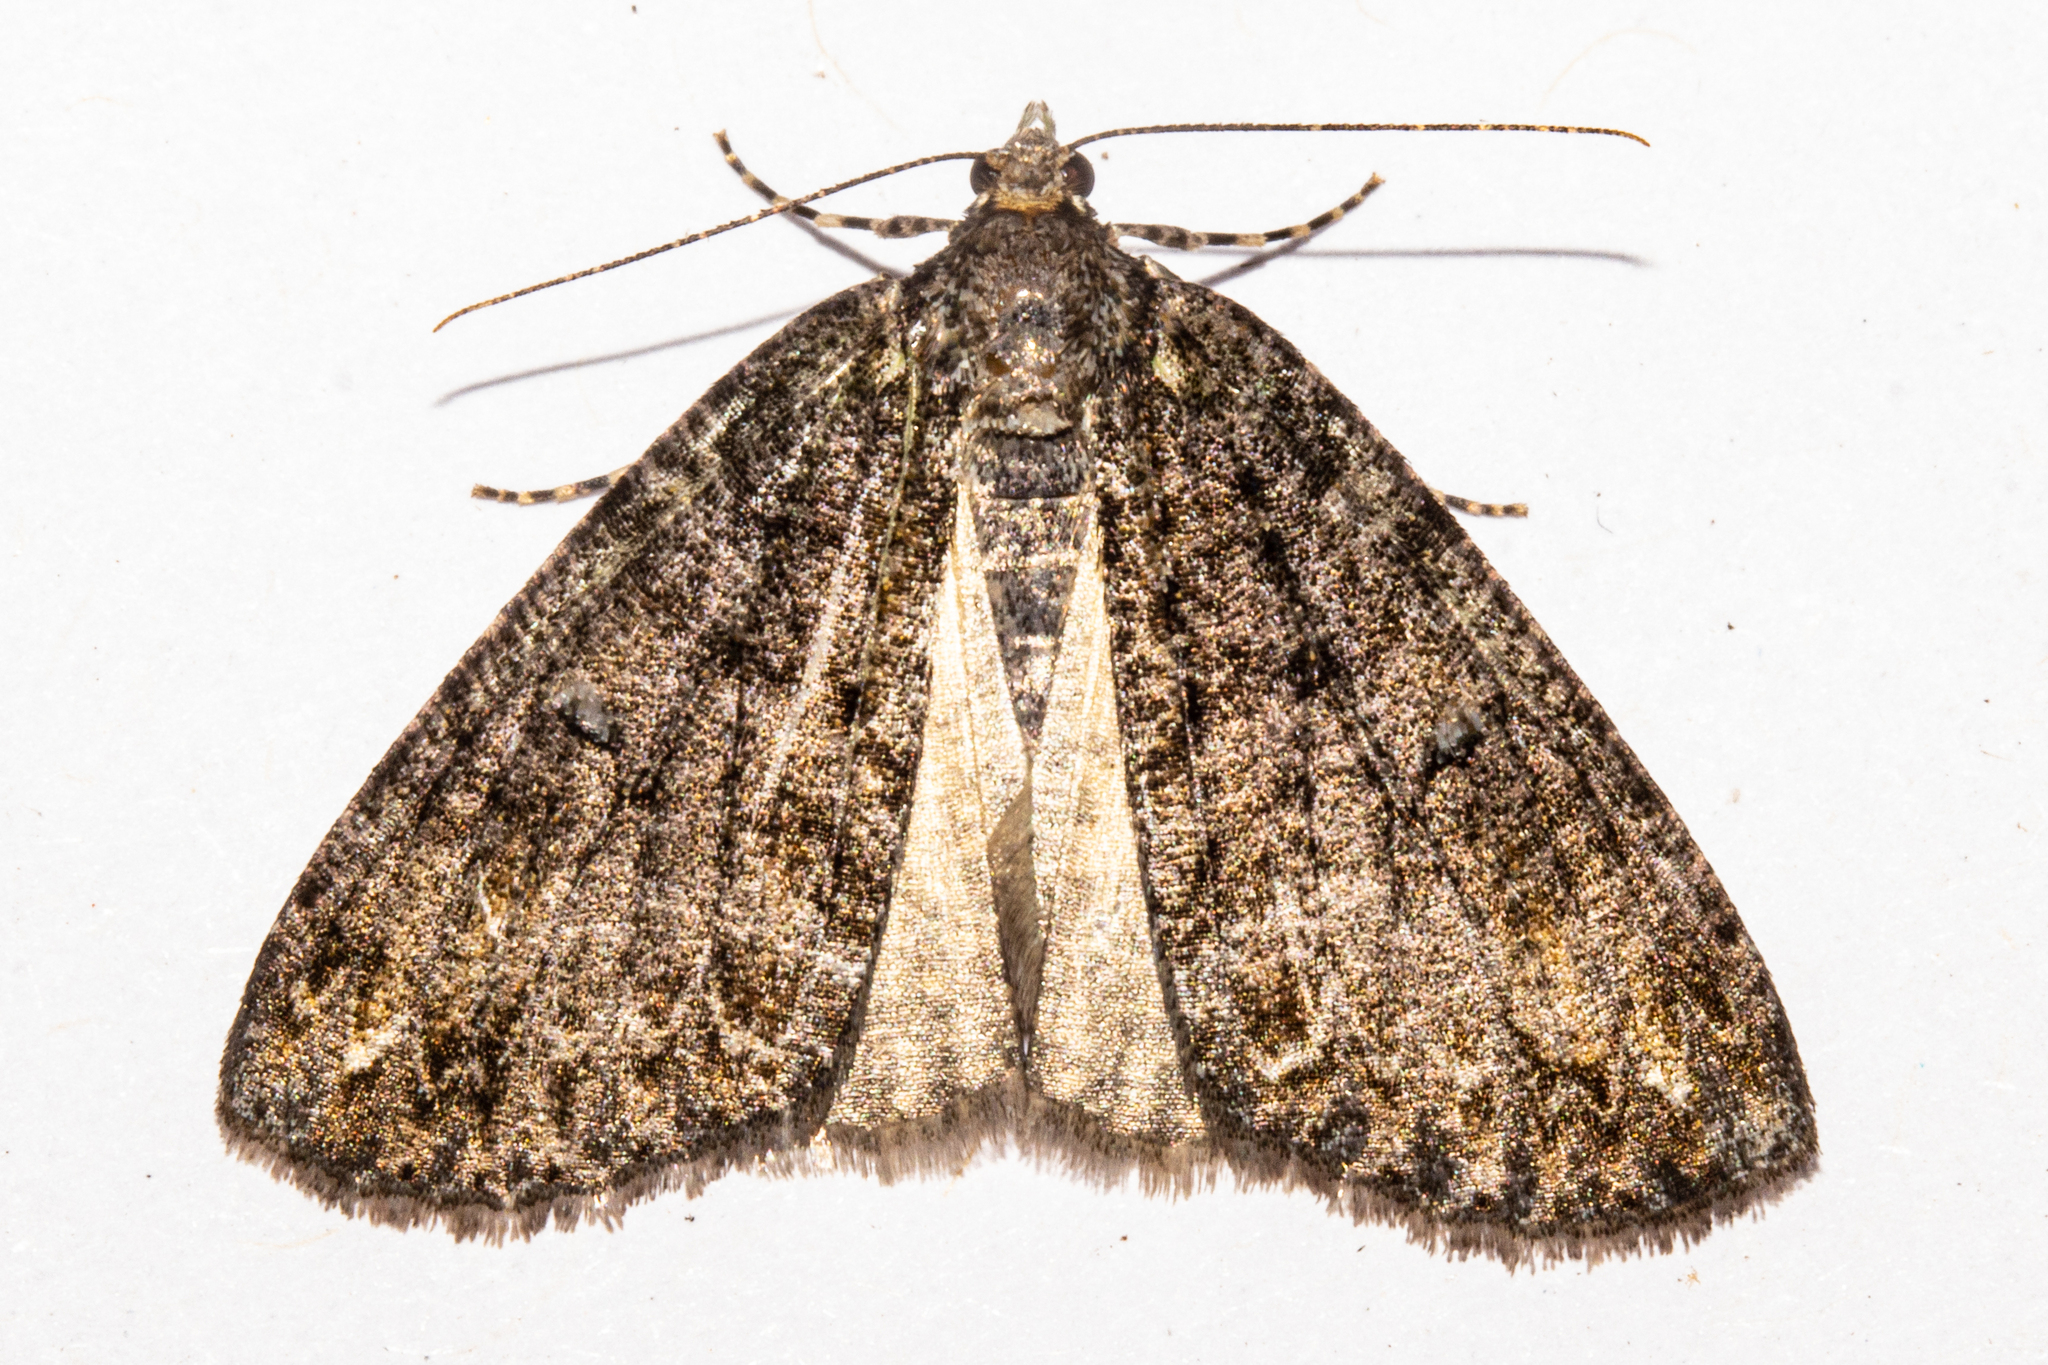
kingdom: Animalia
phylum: Arthropoda
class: Insecta
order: Lepidoptera
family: Geometridae
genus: Pseudocoremia
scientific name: Pseudocoremia suavis
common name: Common forest looper
